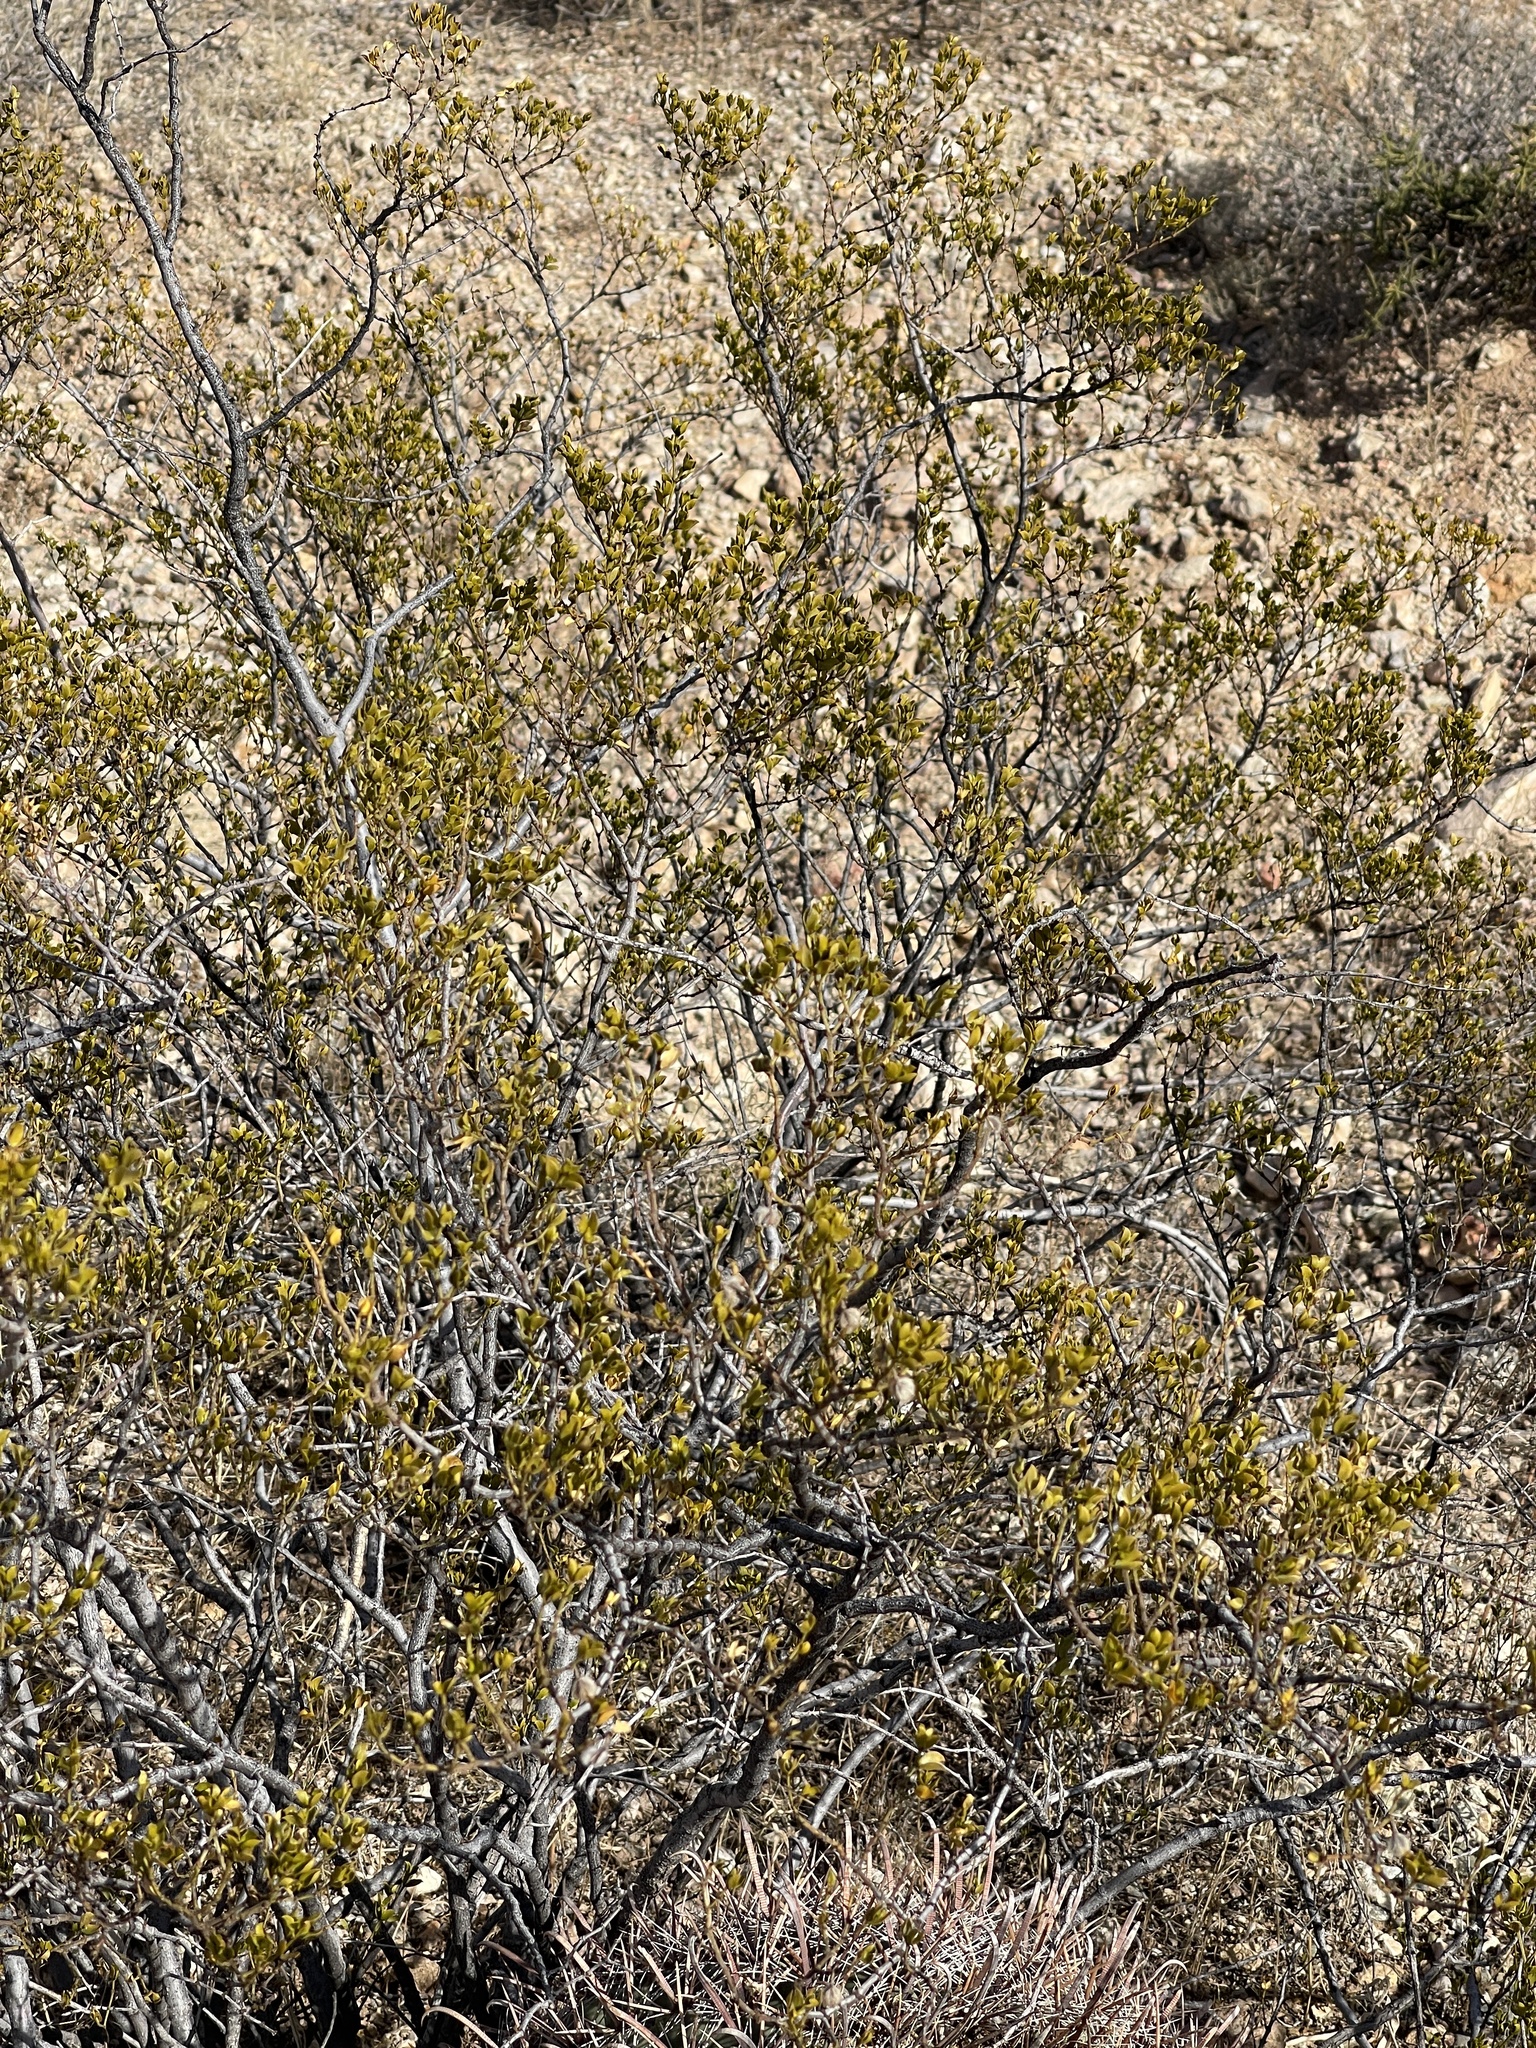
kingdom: Plantae
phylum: Tracheophyta
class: Magnoliopsida
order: Zygophyllales
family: Zygophyllaceae
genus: Larrea
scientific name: Larrea tridentata
